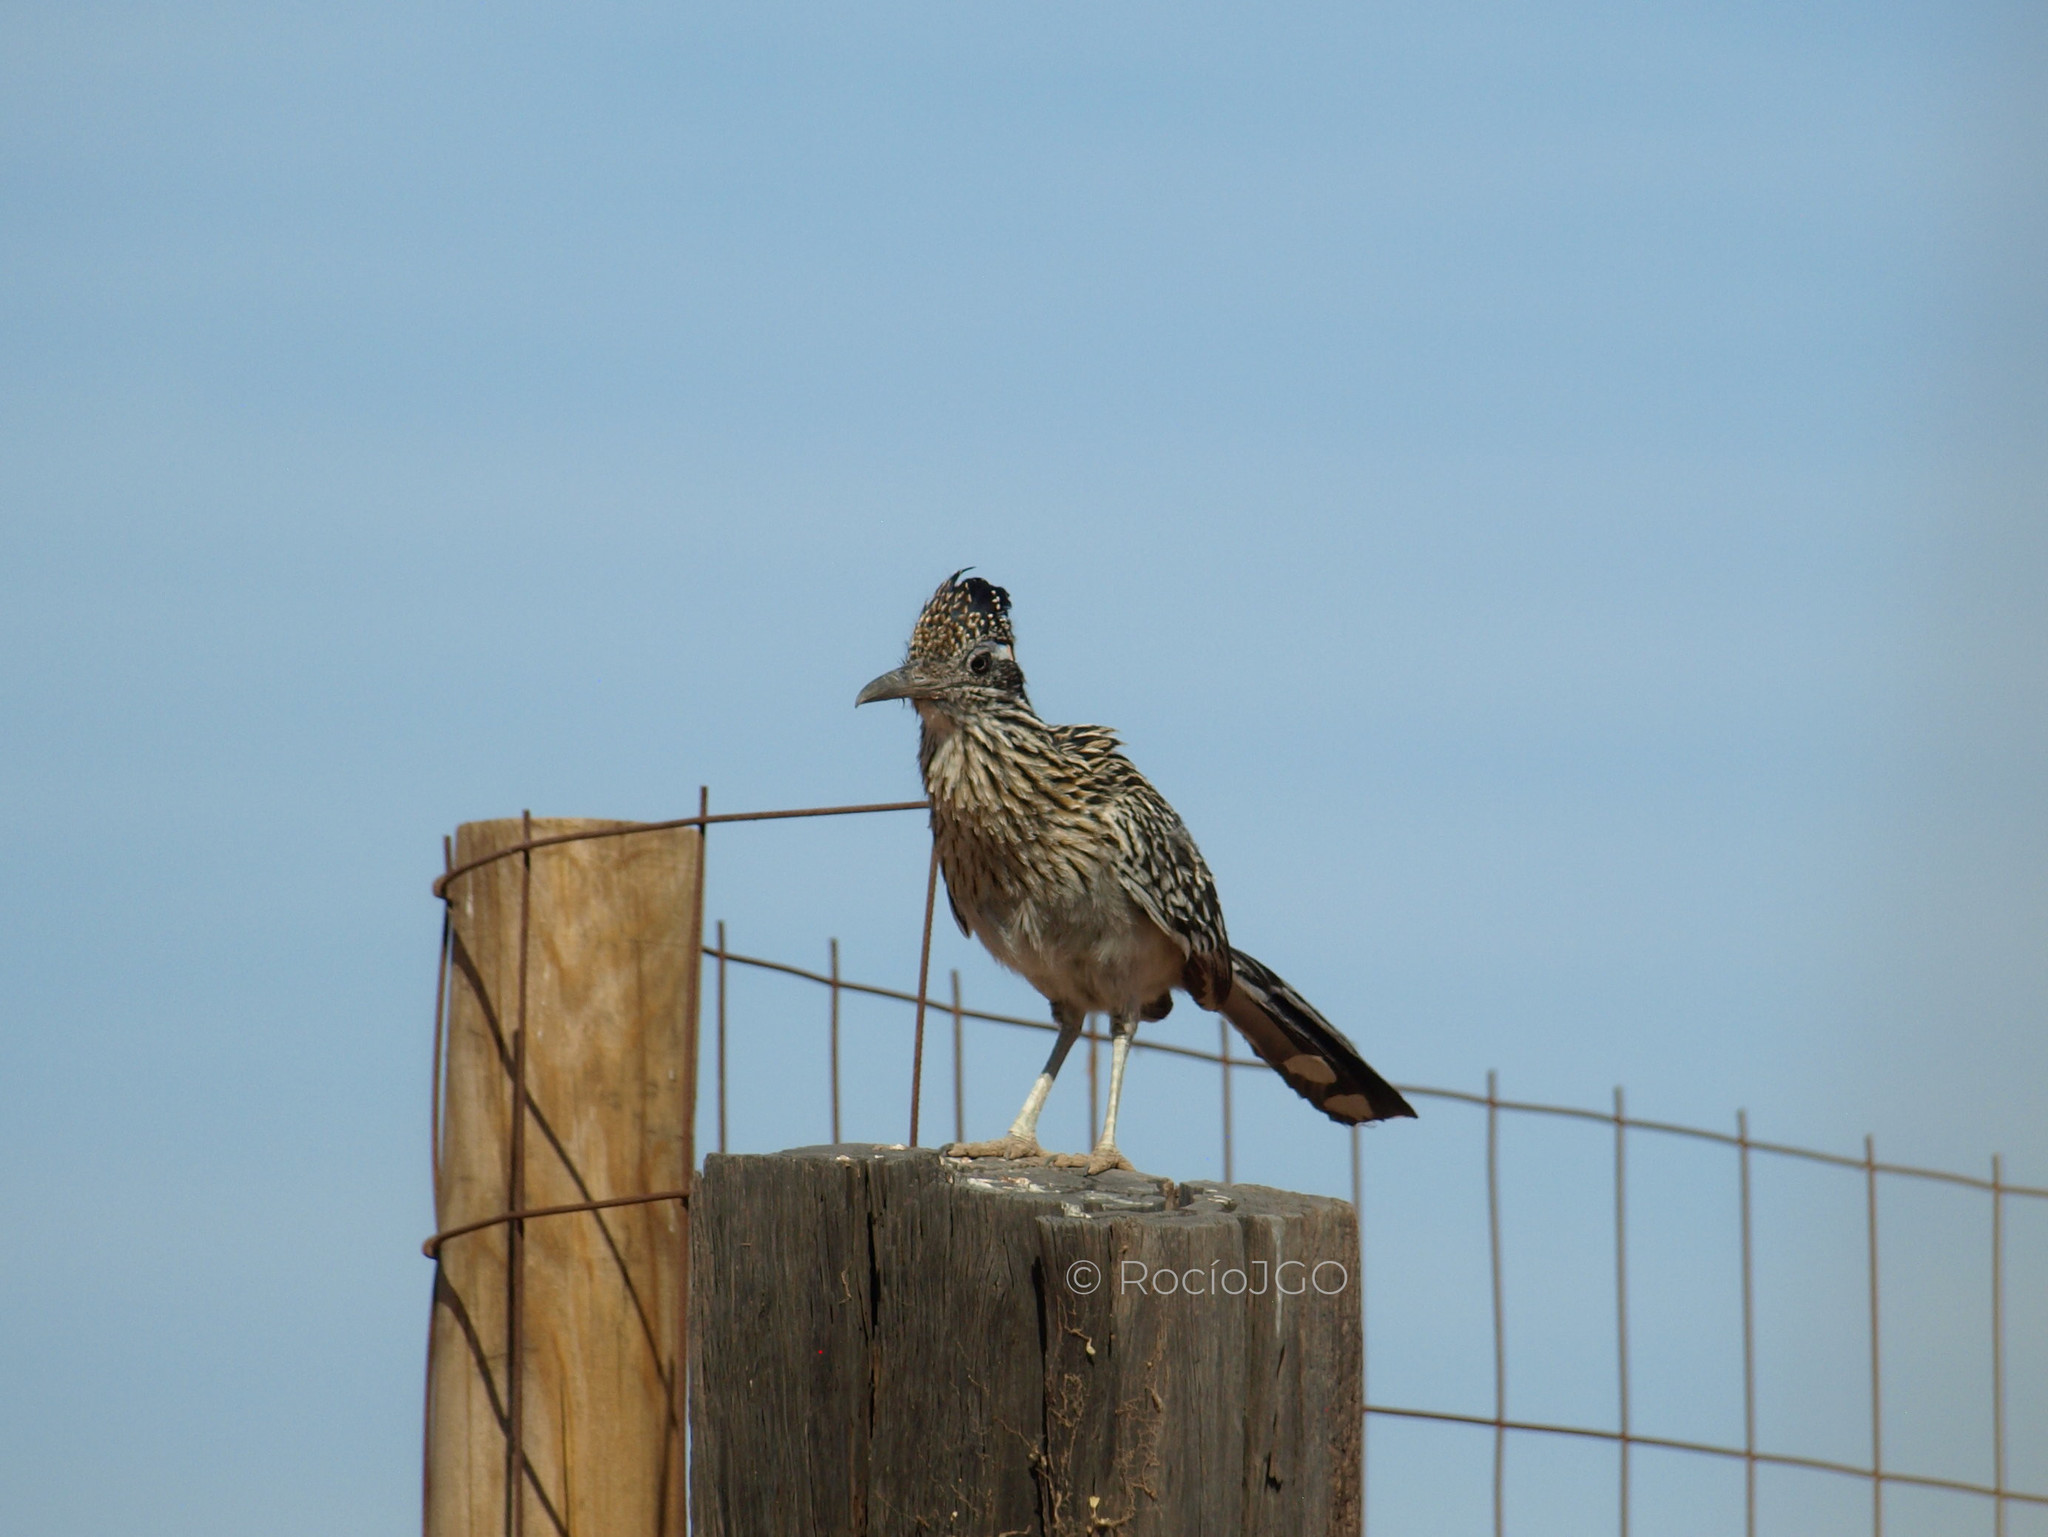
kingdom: Animalia
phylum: Chordata
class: Aves
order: Cuculiformes
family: Cuculidae
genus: Geococcyx
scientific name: Geococcyx californianus
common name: Greater roadrunner
